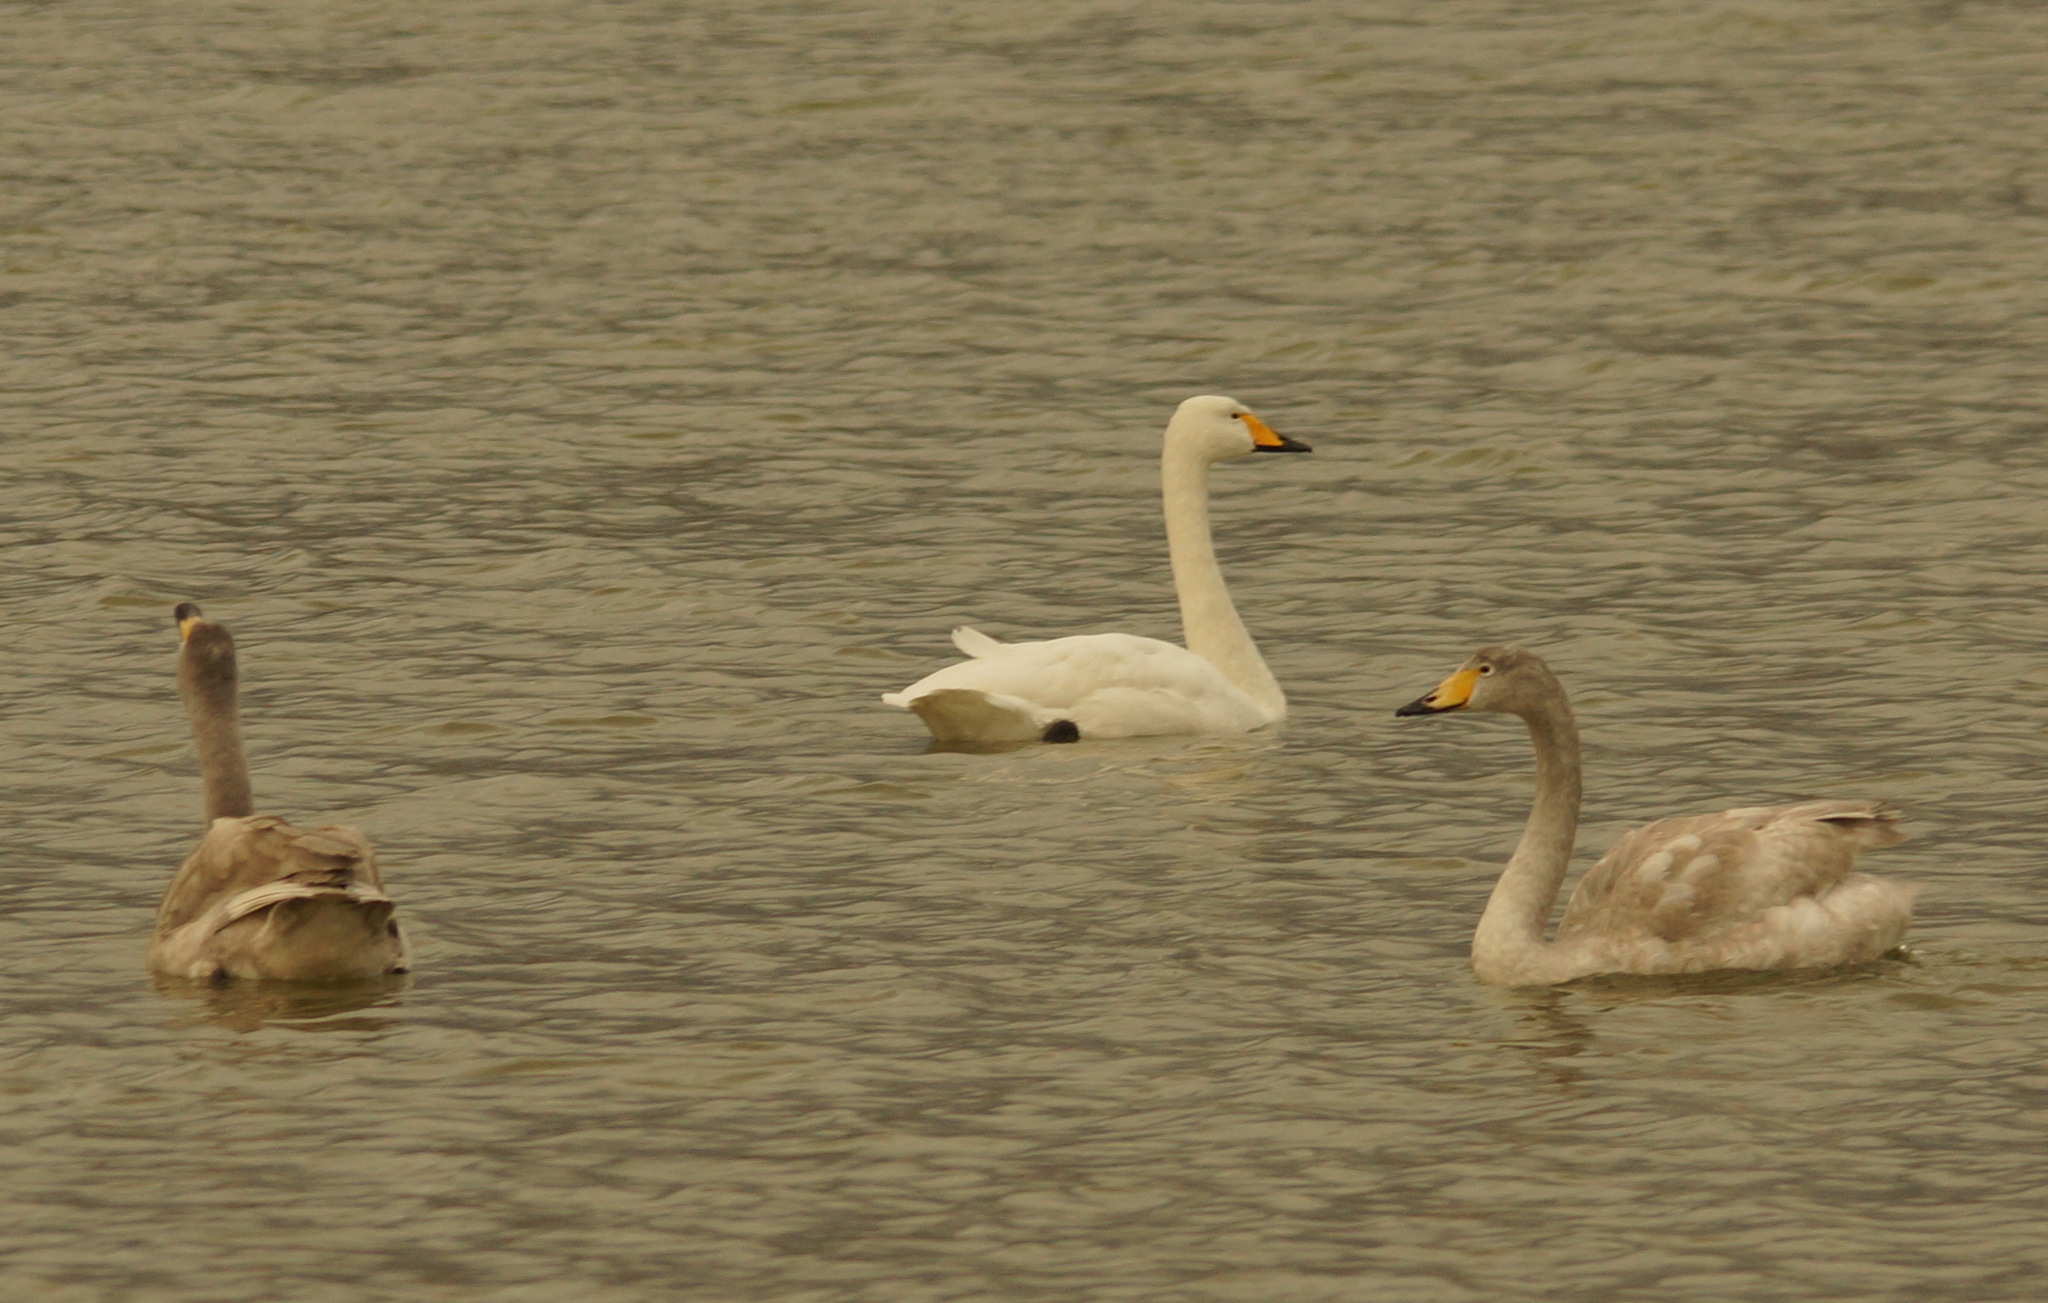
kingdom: Animalia
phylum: Chordata
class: Aves
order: Anseriformes
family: Anatidae
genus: Cygnus
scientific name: Cygnus cygnus
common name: Whooper swan
